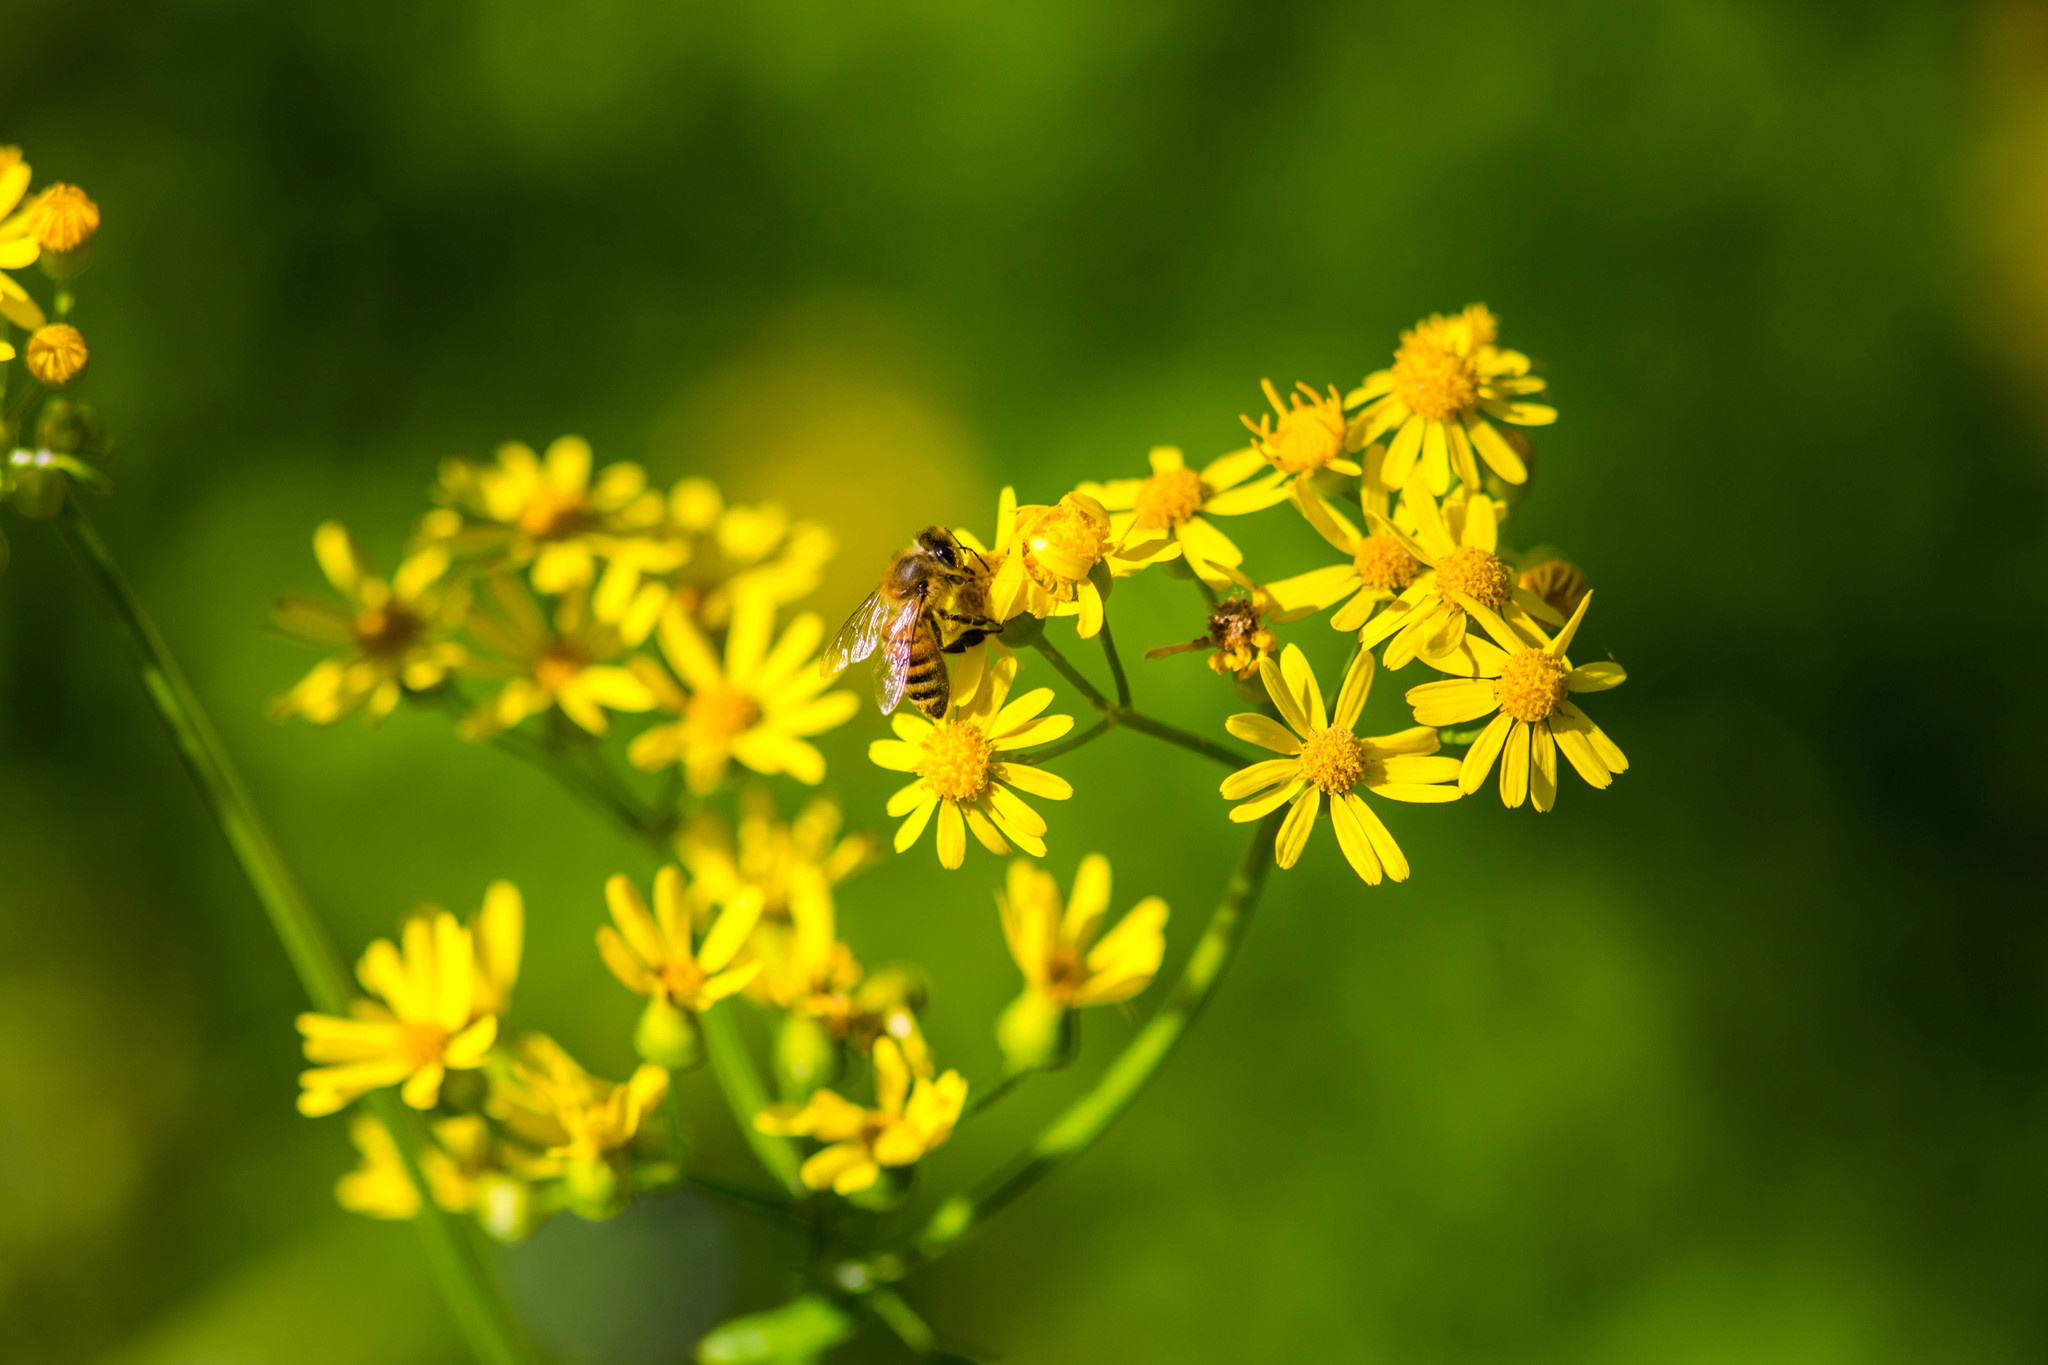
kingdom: Animalia
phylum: Arthropoda
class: Insecta
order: Hymenoptera
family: Apidae
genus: Apis
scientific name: Apis mellifera
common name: Honey bee
